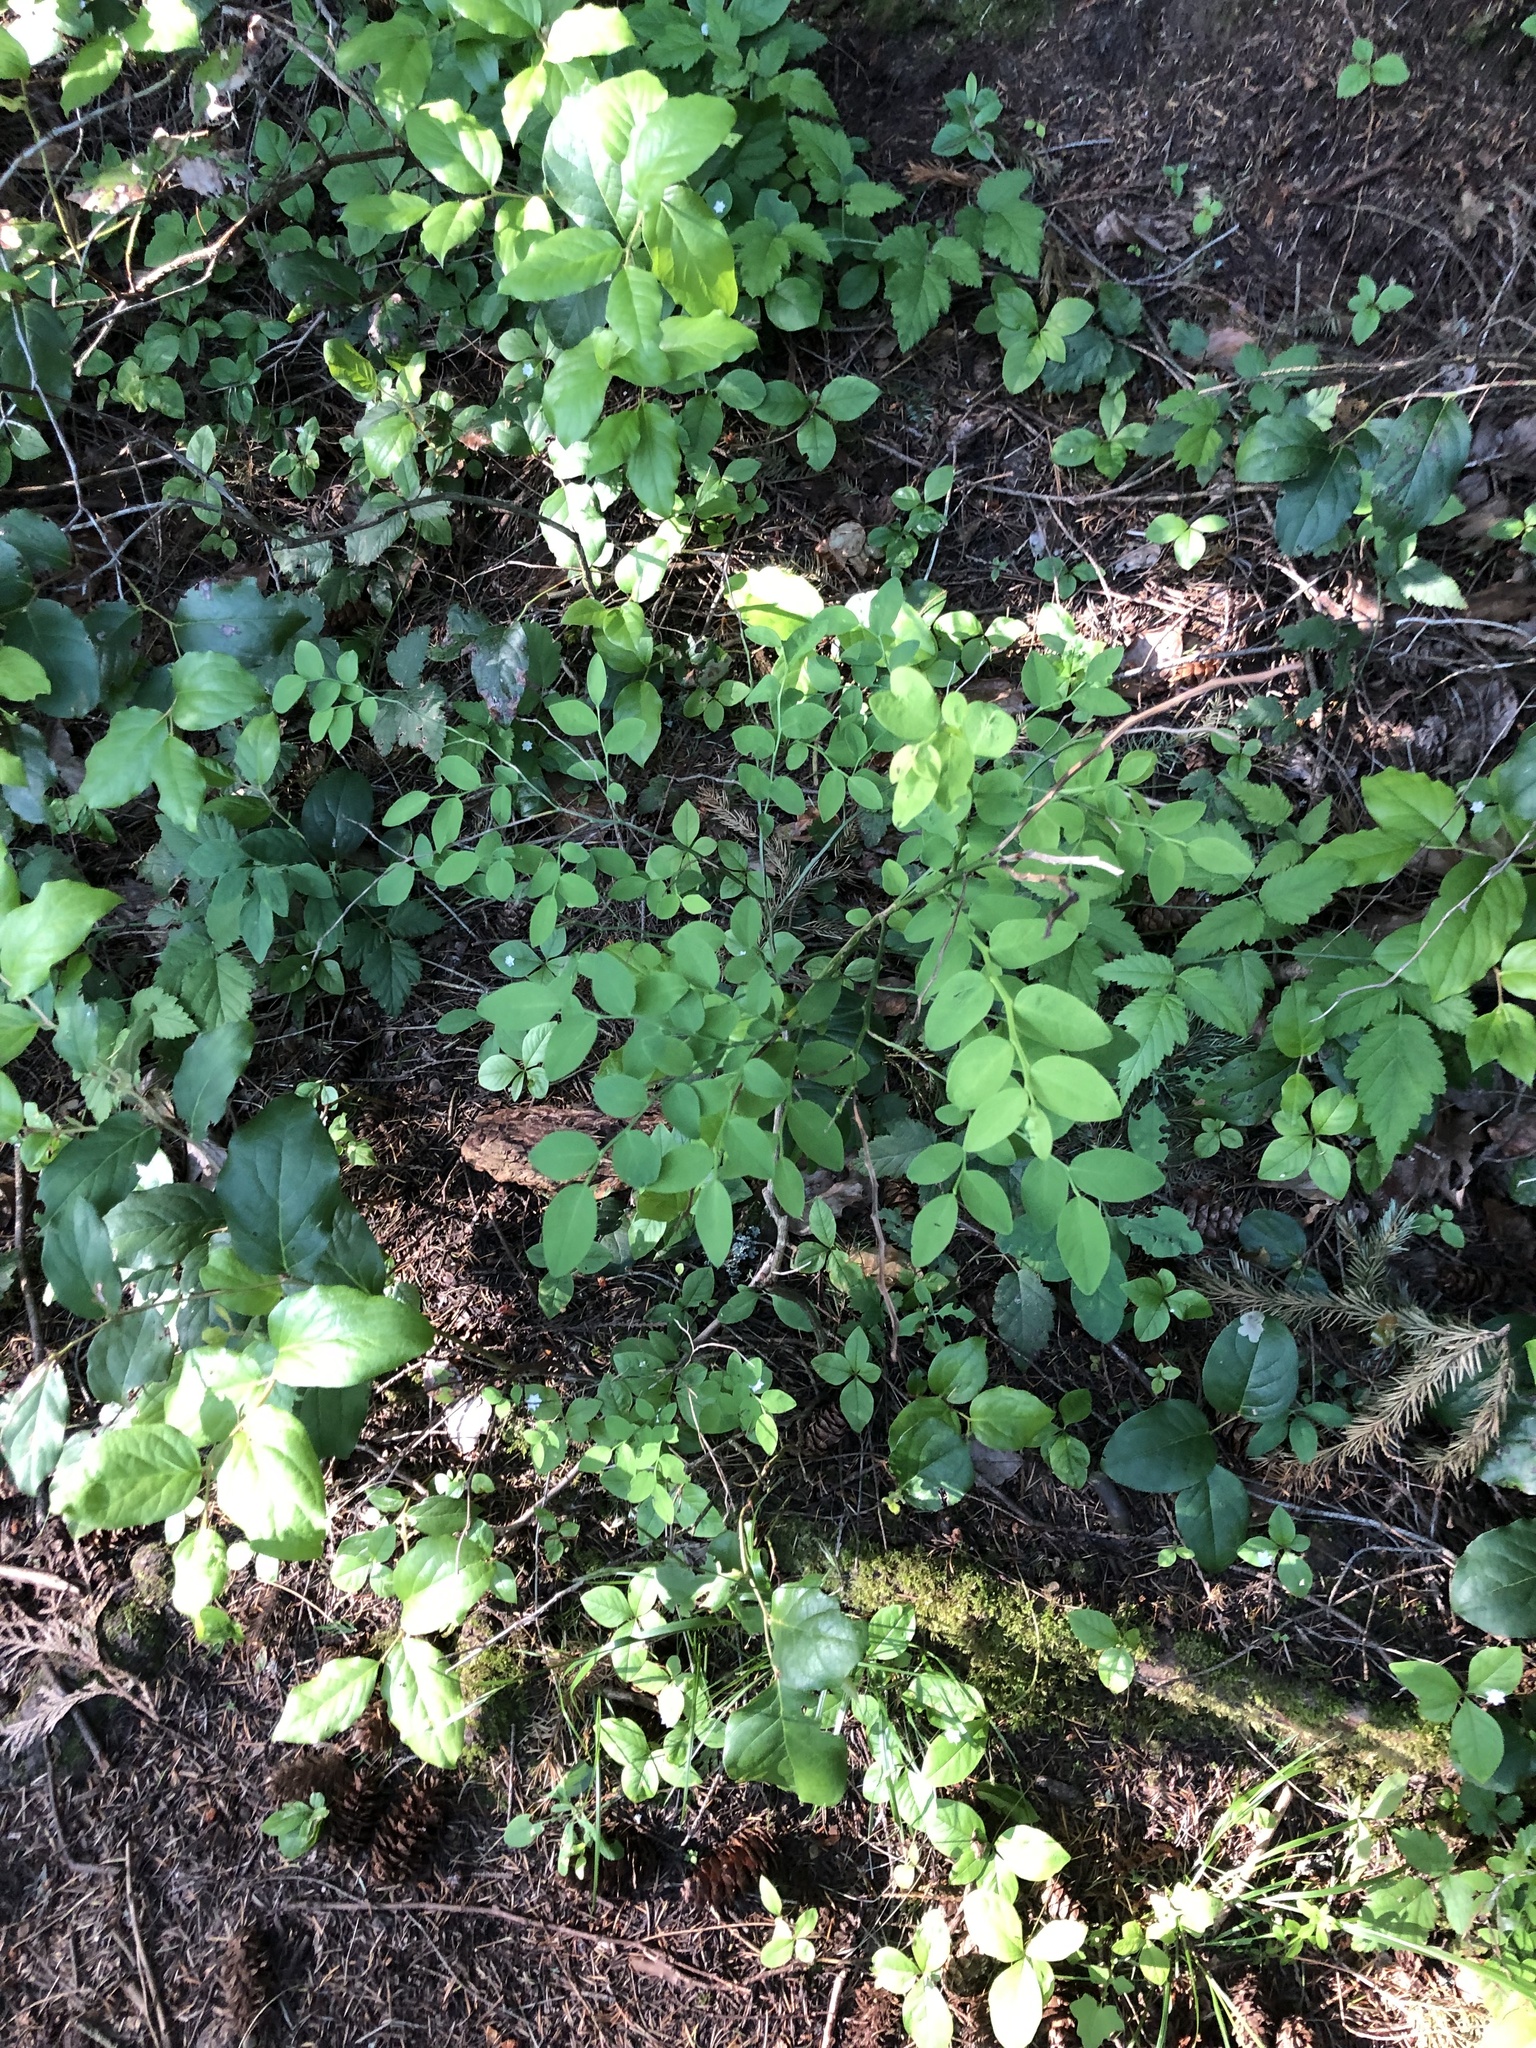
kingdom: Plantae
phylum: Tracheophyta
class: Magnoliopsida
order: Ericales
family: Ericaceae
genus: Vaccinium
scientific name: Vaccinium parvifolium
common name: Red-huckleberry
